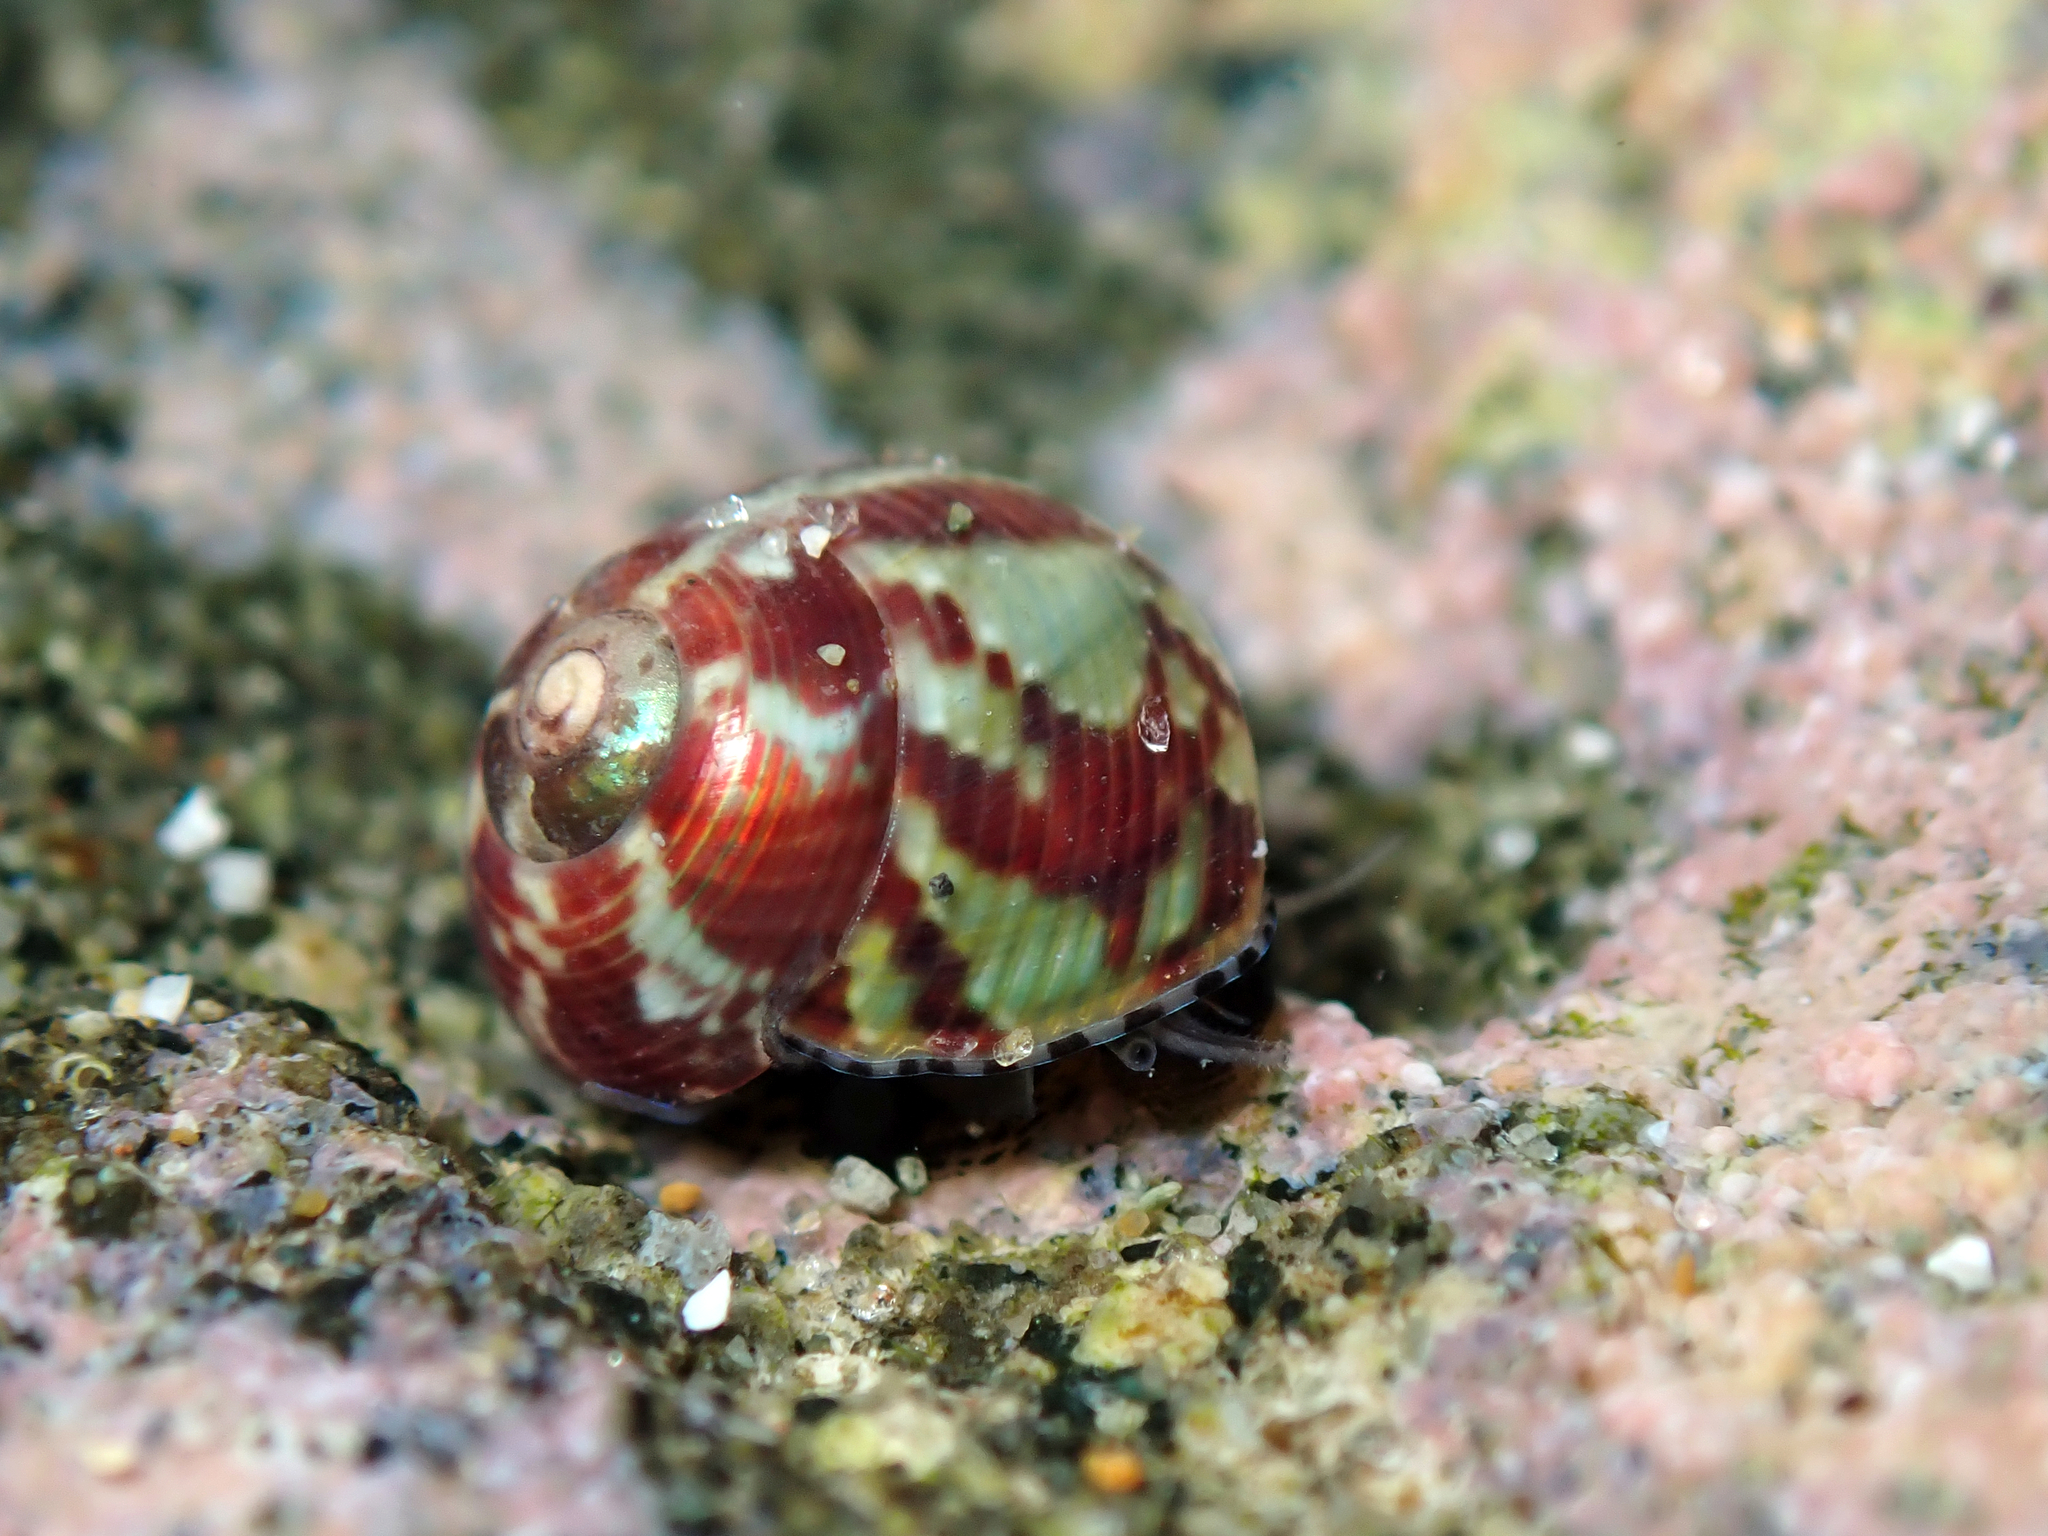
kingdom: Animalia
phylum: Mollusca
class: Gastropoda
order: Trochida
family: Trochidae
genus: Micrelenchus
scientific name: Micrelenchus tessellatus
